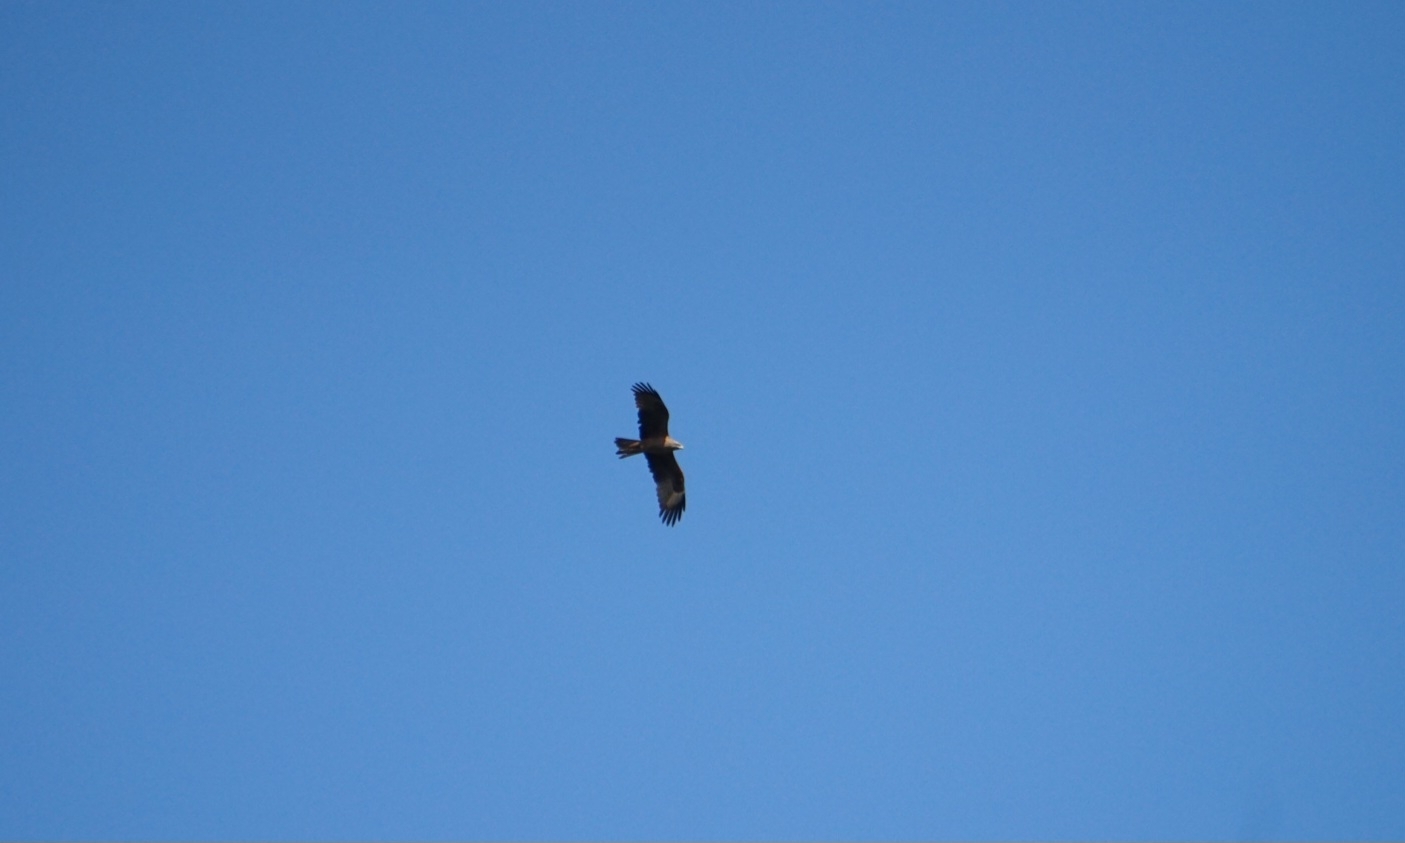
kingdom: Animalia
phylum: Chordata
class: Aves
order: Accipitriformes
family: Accipitridae
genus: Milvus
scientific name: Milvus migrans
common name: Black kite
